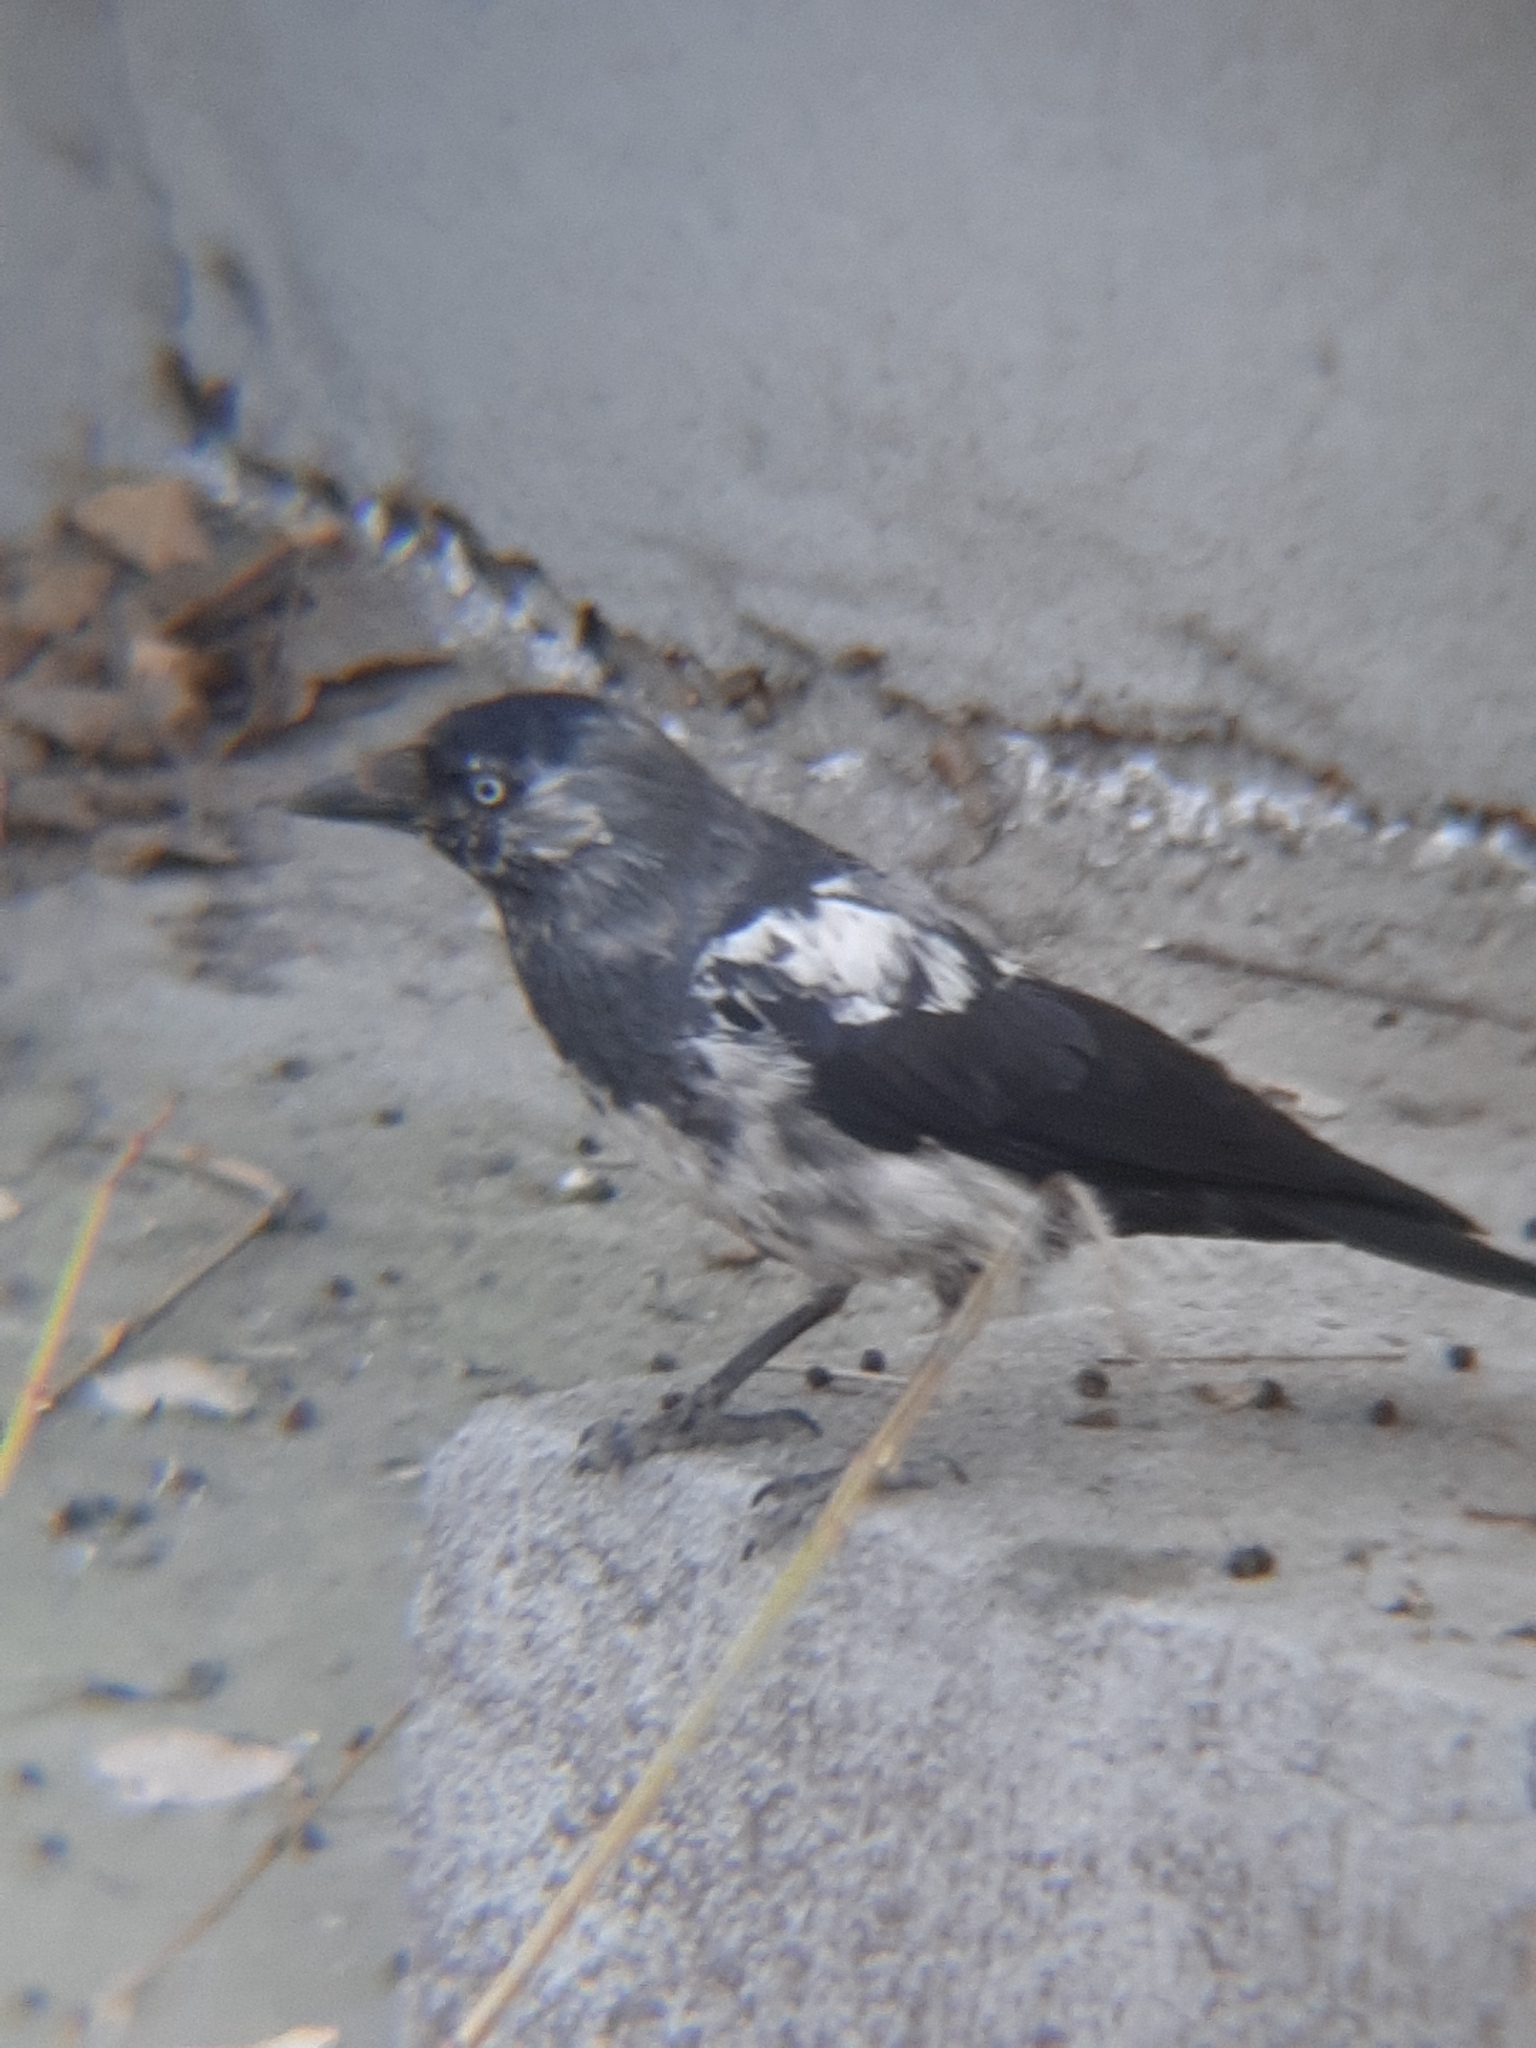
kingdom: Animalia
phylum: Chordata
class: Aves
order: Passeriformes
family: Corvidae
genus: Coloeus
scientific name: Coloeus monedula
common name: Western jackdaw
